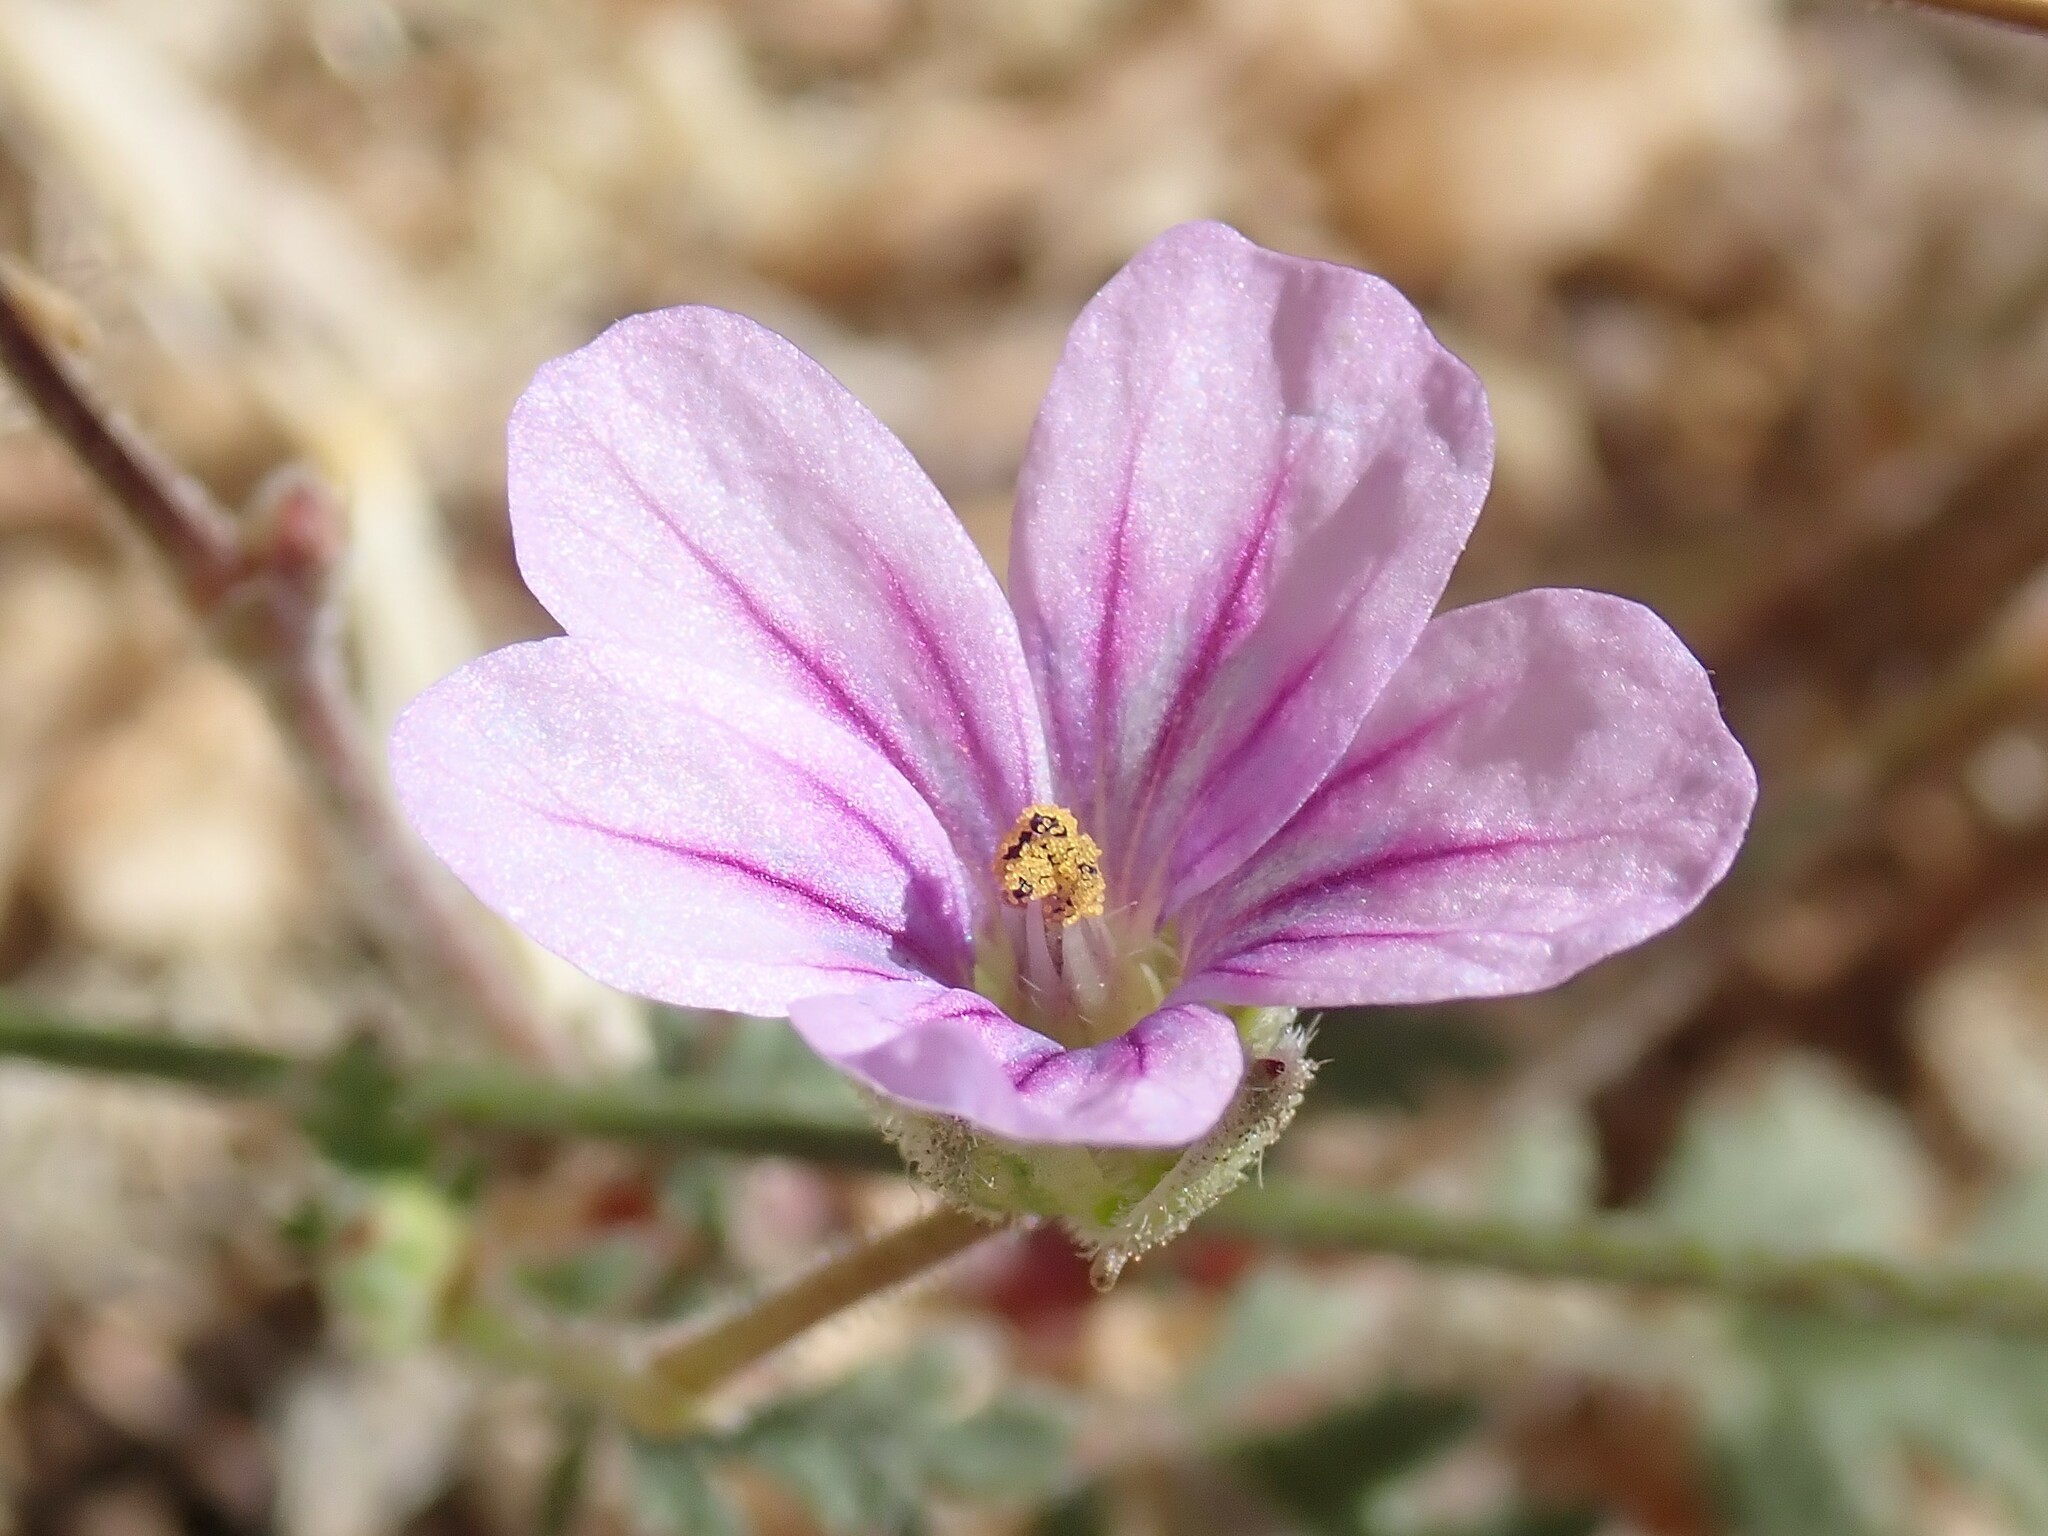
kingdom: Plantae
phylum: Tracheophyta
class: Magnoliopsida
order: Geraniales
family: Geraniaceae
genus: Erodium
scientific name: Erodium botrys
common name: Mediterranean stork's-bill
